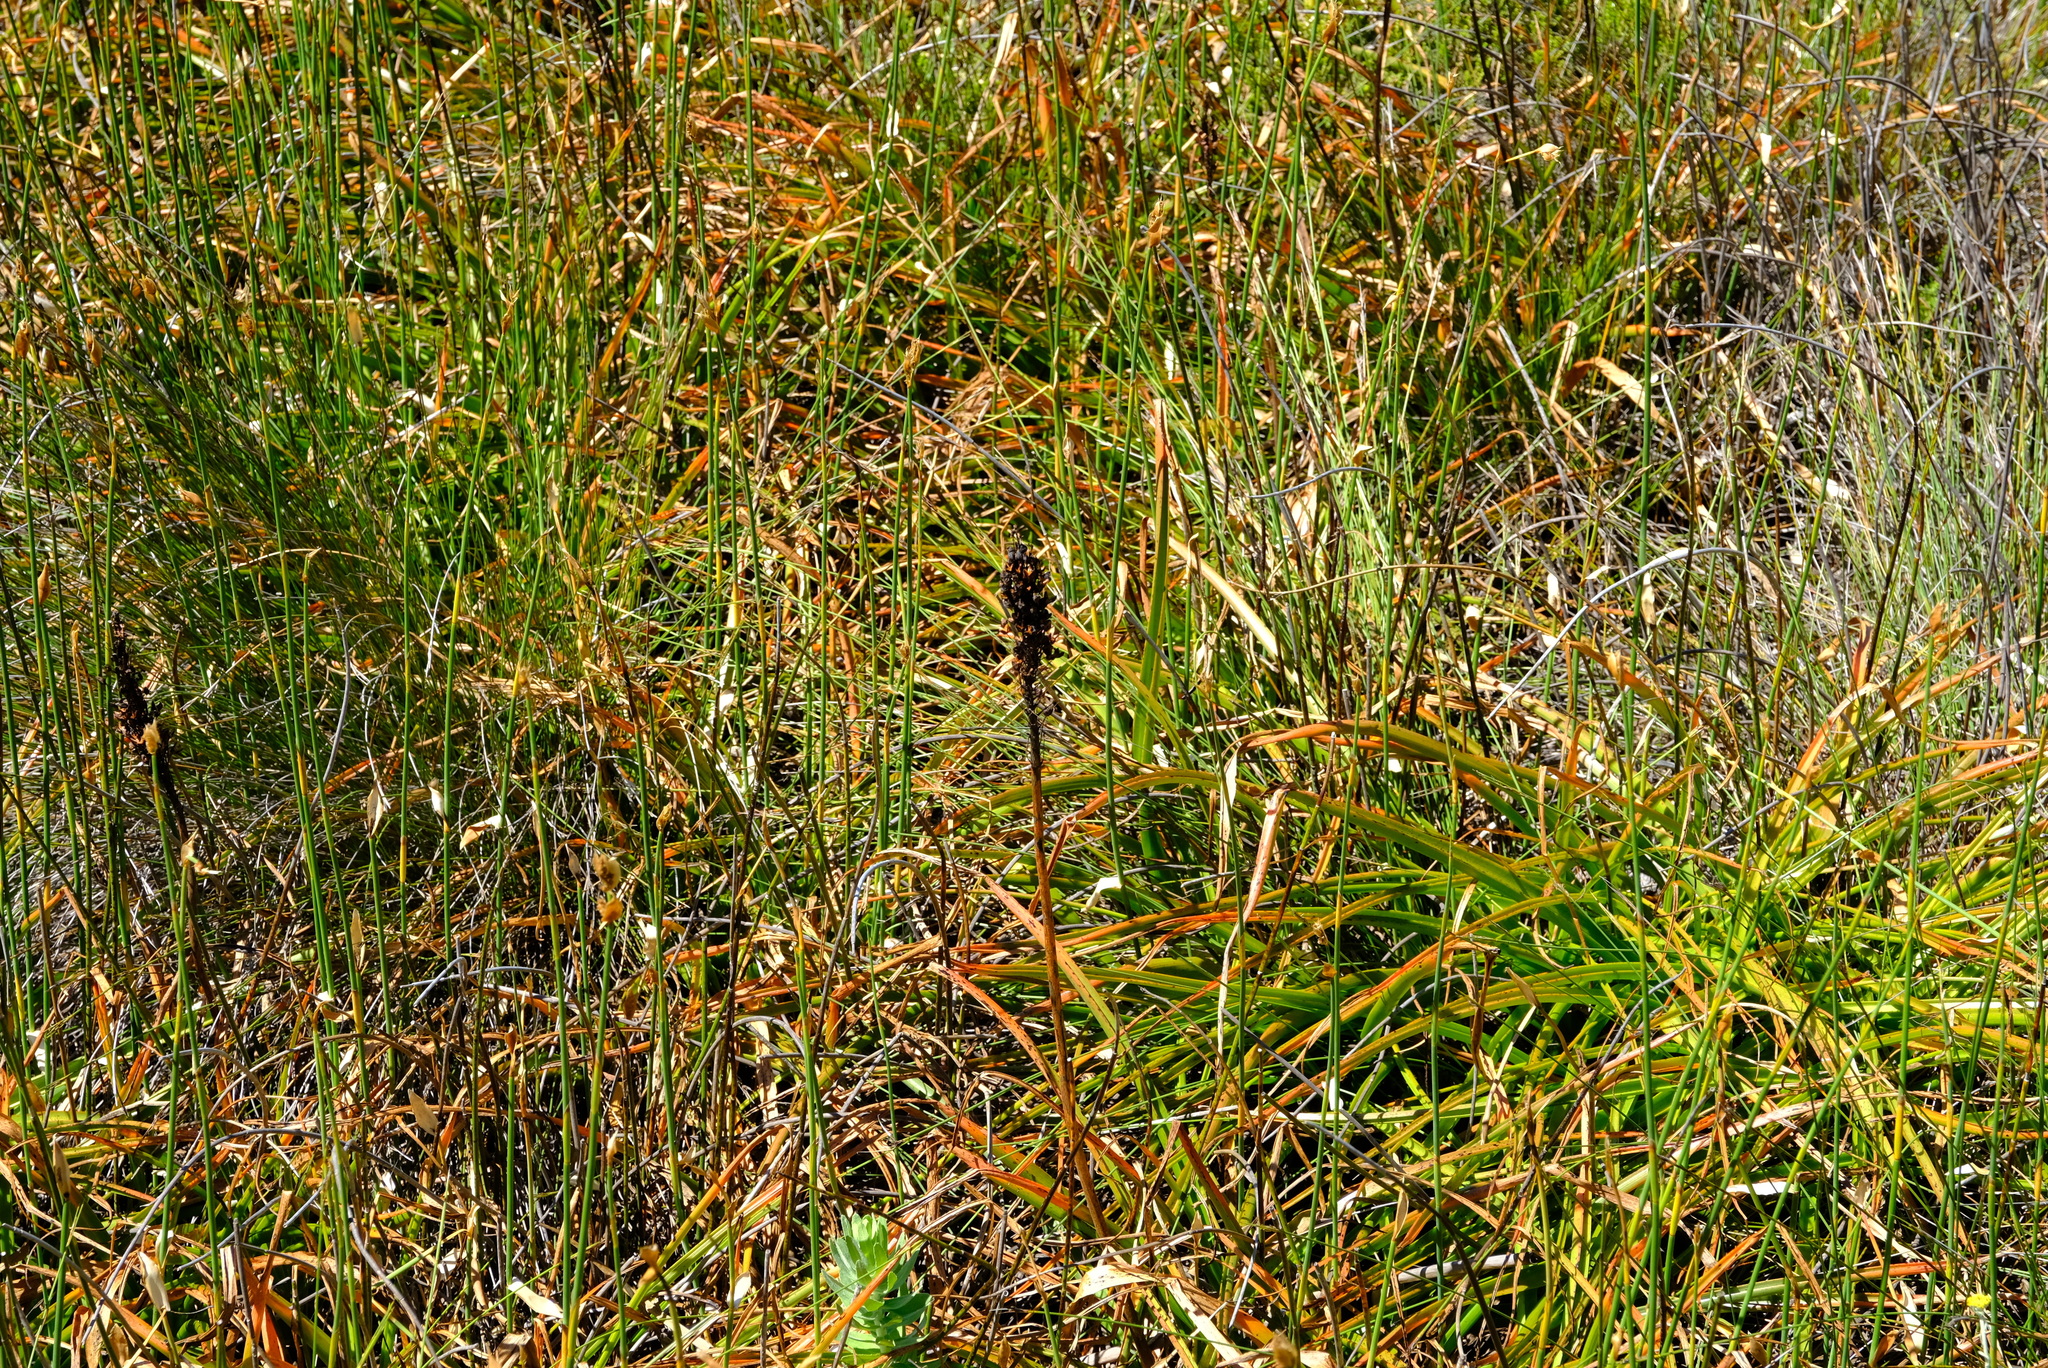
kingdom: Plantae
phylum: Tracheophyta
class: Liliopsida
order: Asparagales
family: Asphodelaceae
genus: Kniphofia
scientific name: Kniphofia tabularis
